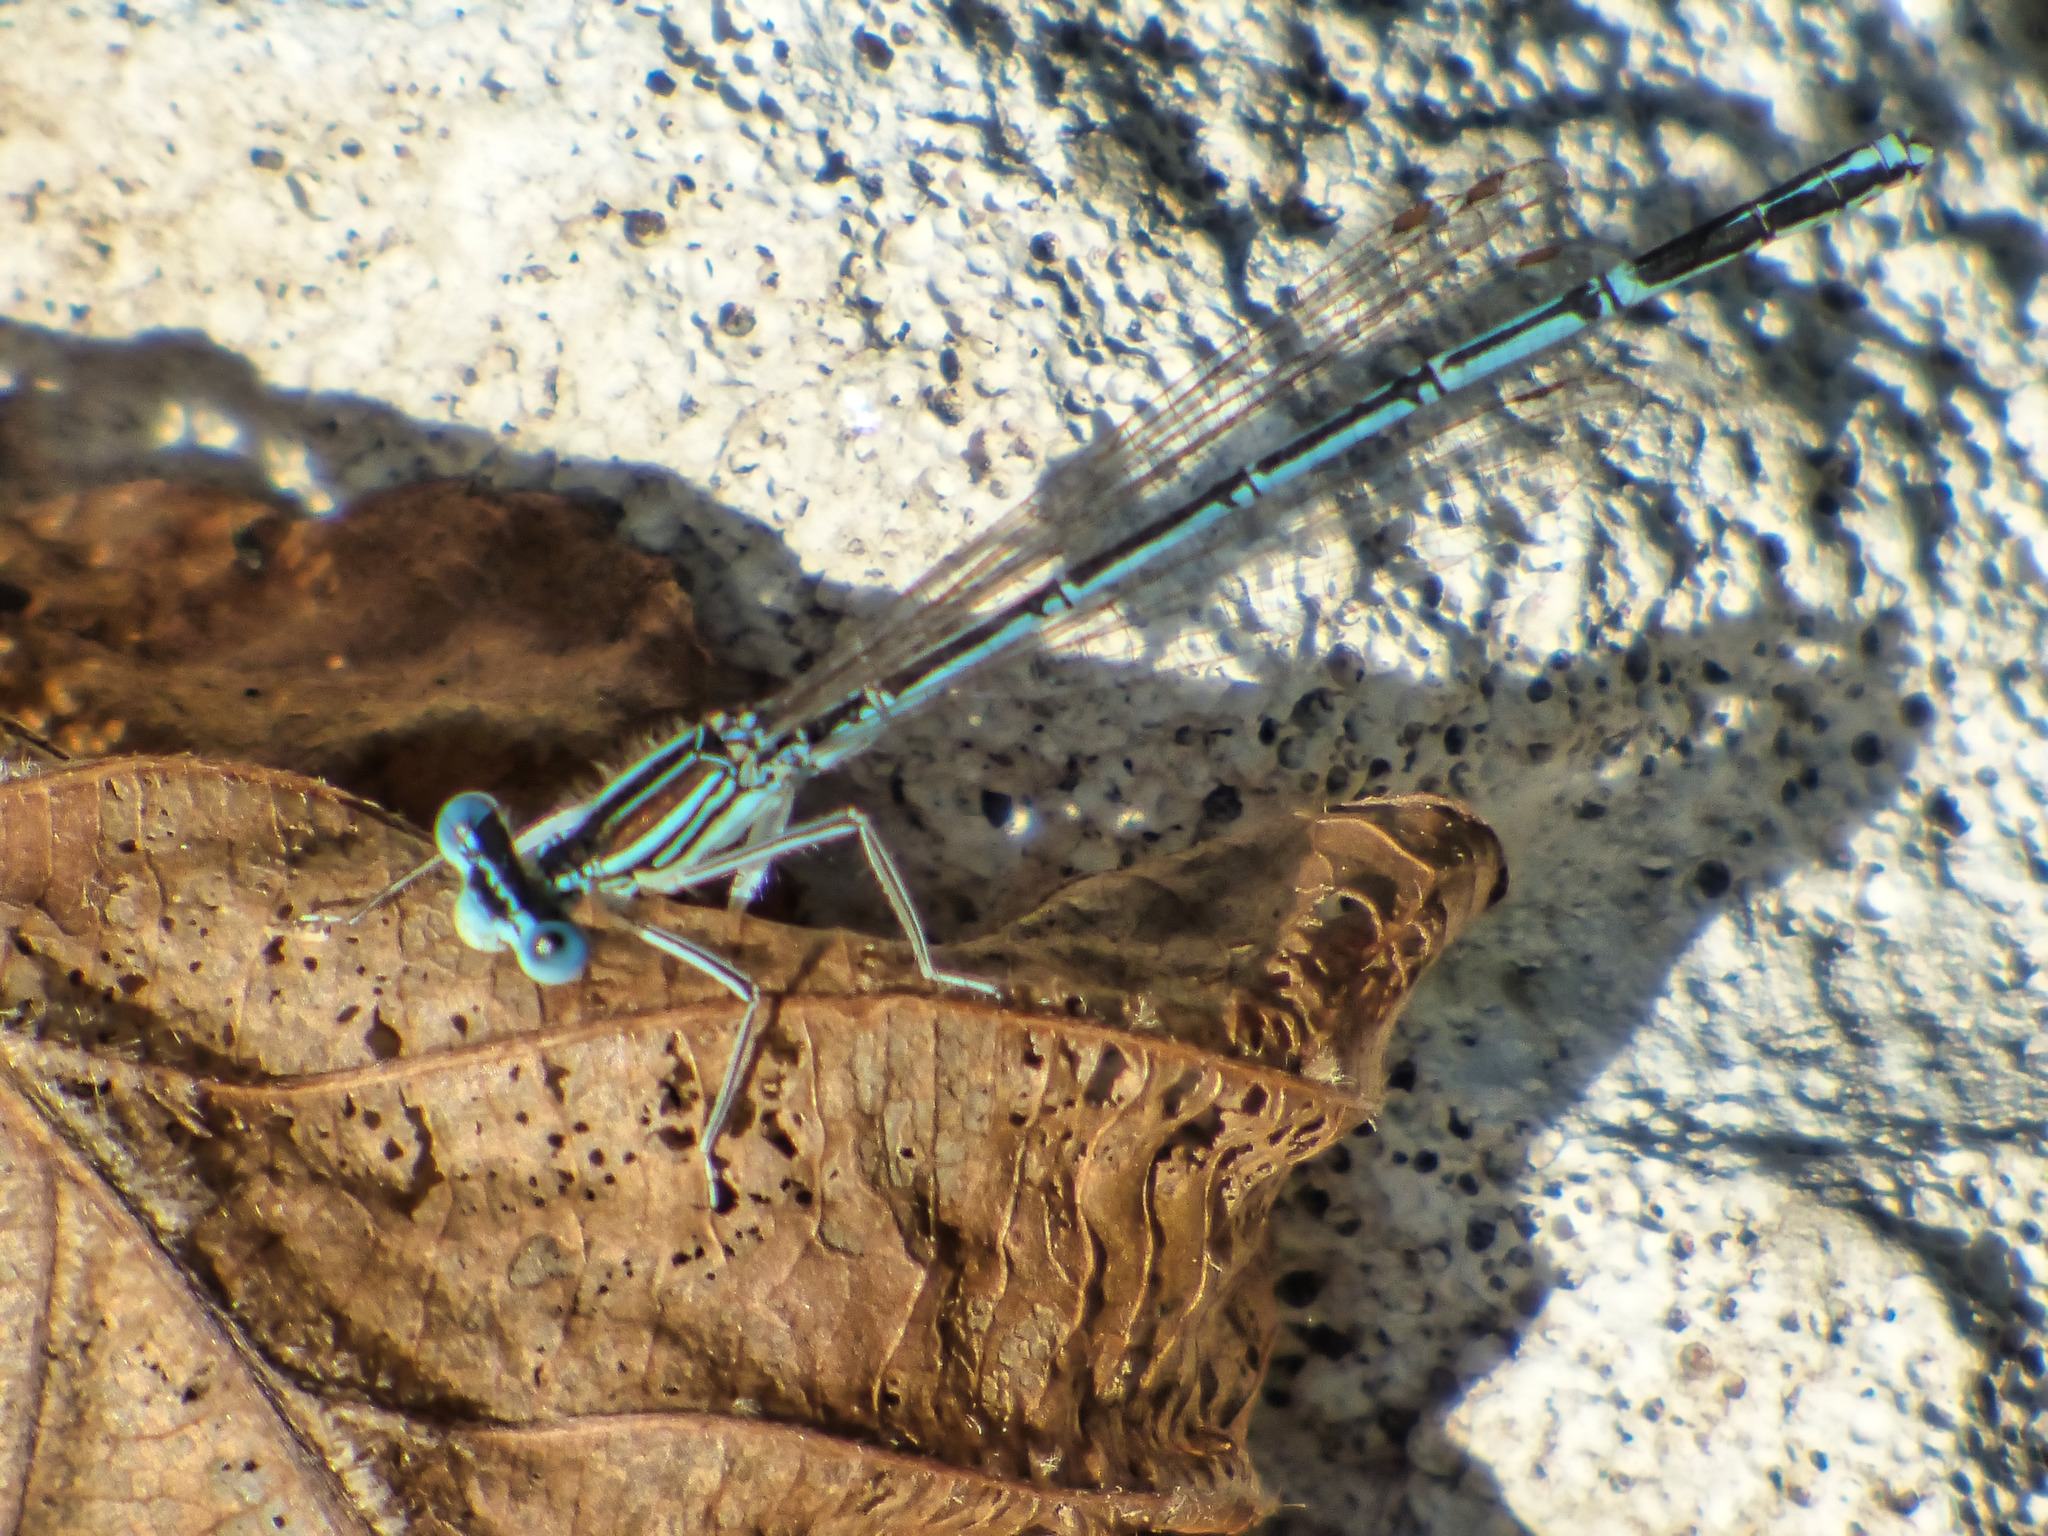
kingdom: Animalia
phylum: Arthropoda
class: Insecta
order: Odonata
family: Platycnemididae
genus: Platycnemis
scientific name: Platycnemis pennipes
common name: White-legged damselfly
